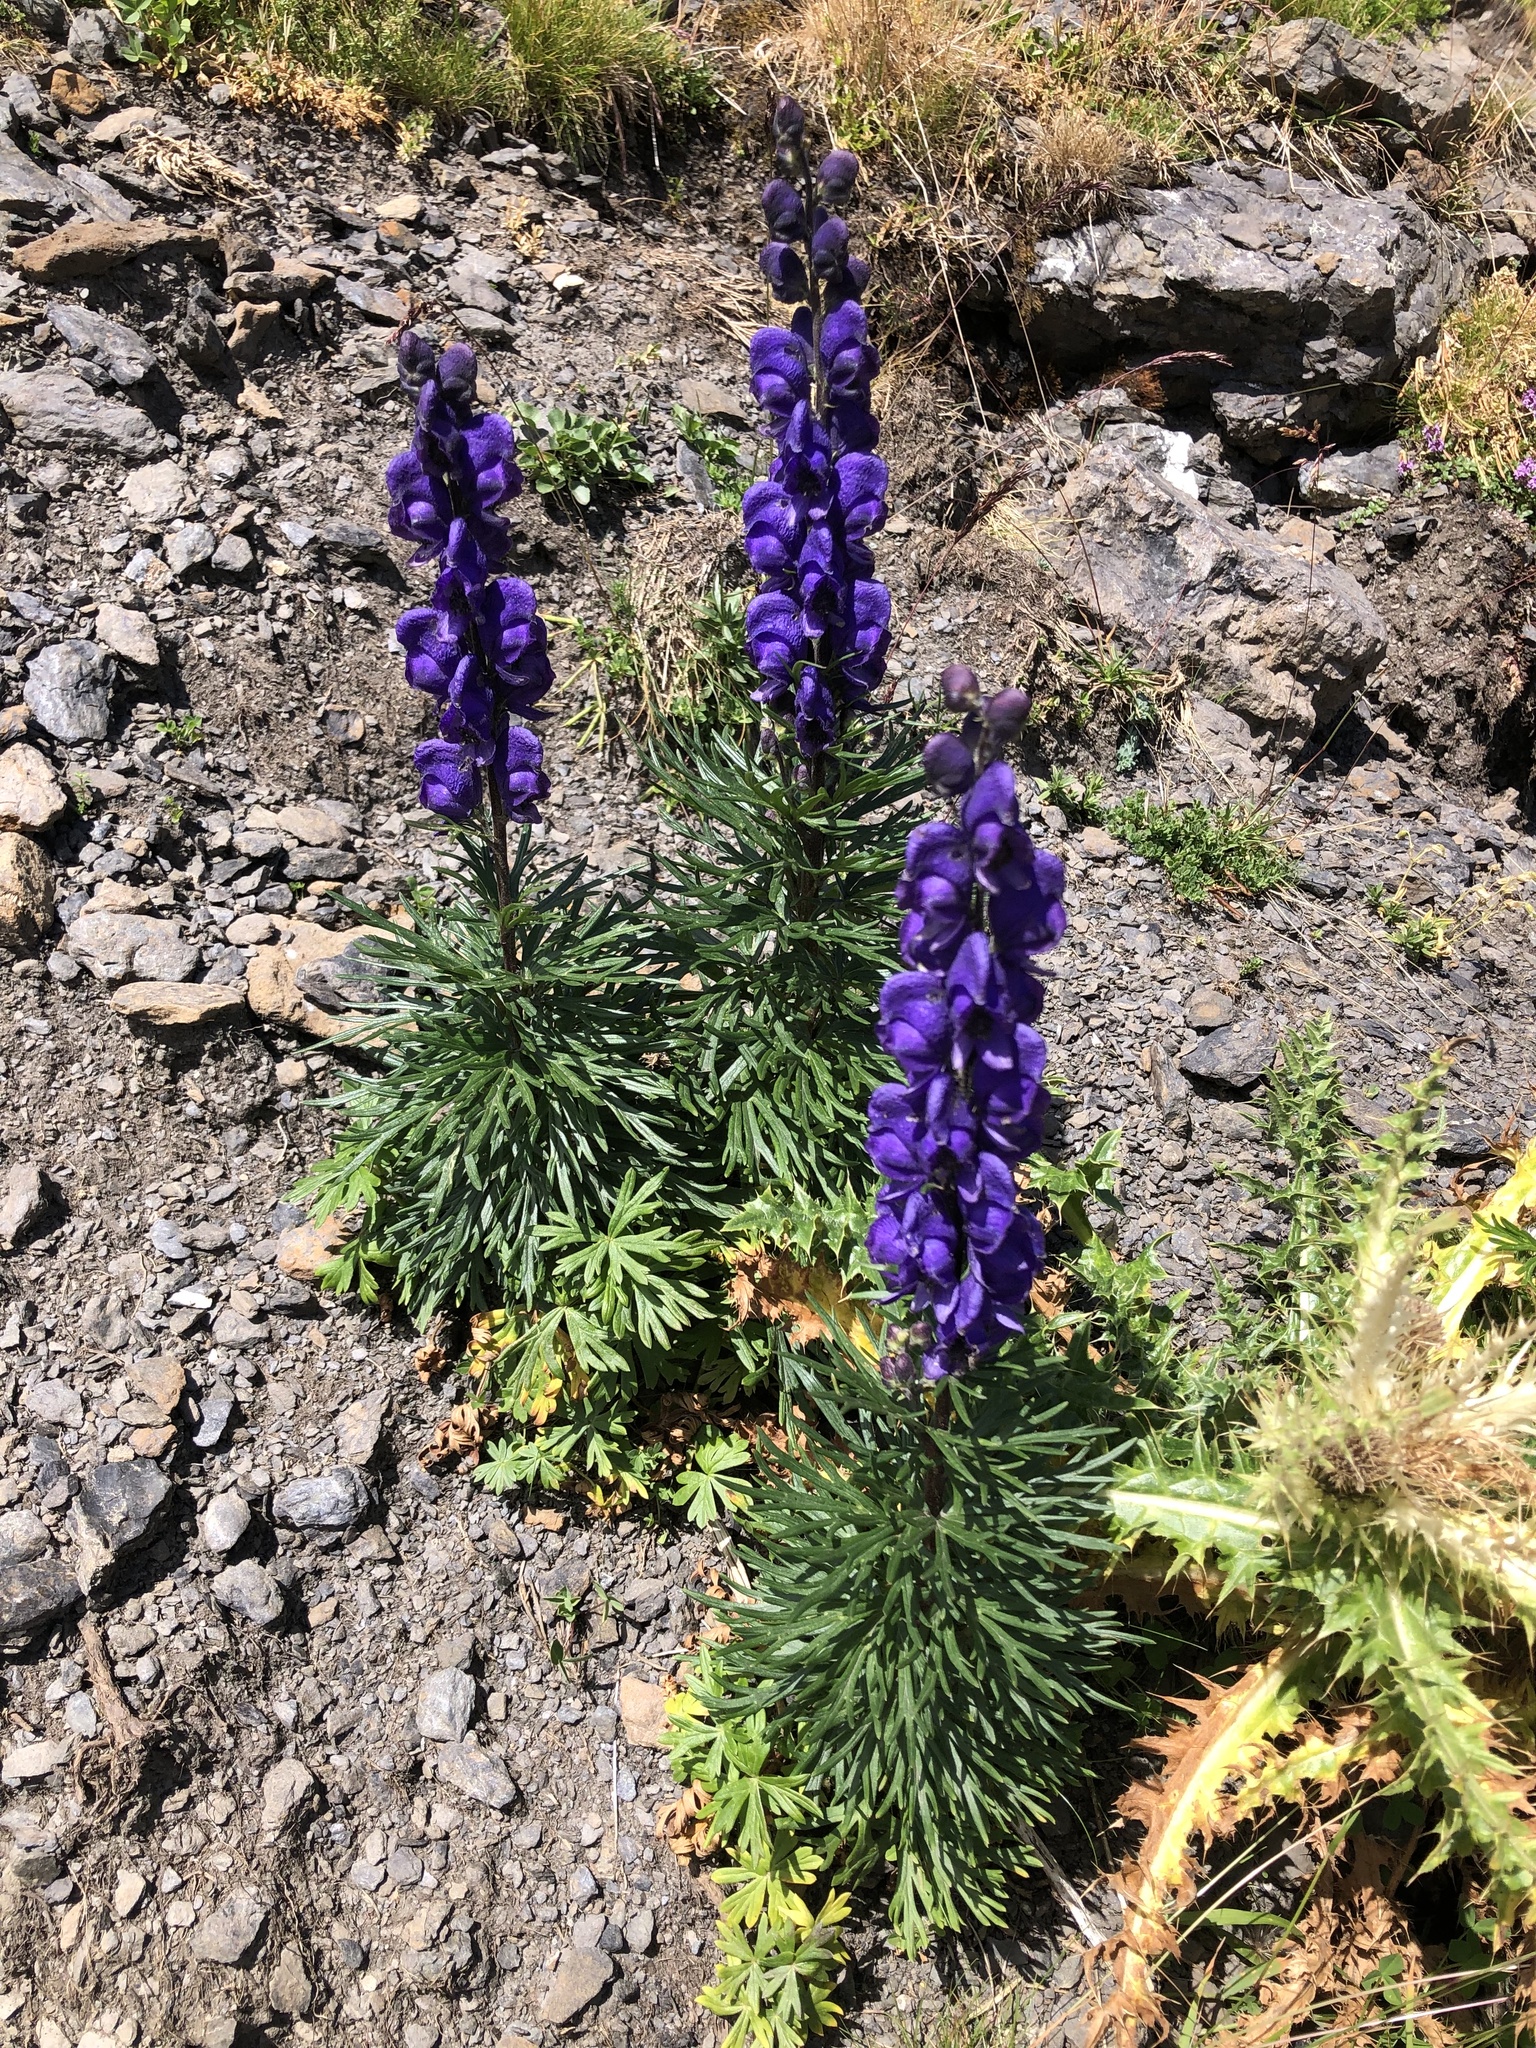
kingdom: Plantae
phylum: Tracheophyta
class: Magnoliopsida
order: Ranunculales
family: Ranunculaceae
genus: Aconitum
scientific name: Aconitum napellus
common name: Garden monkshood
